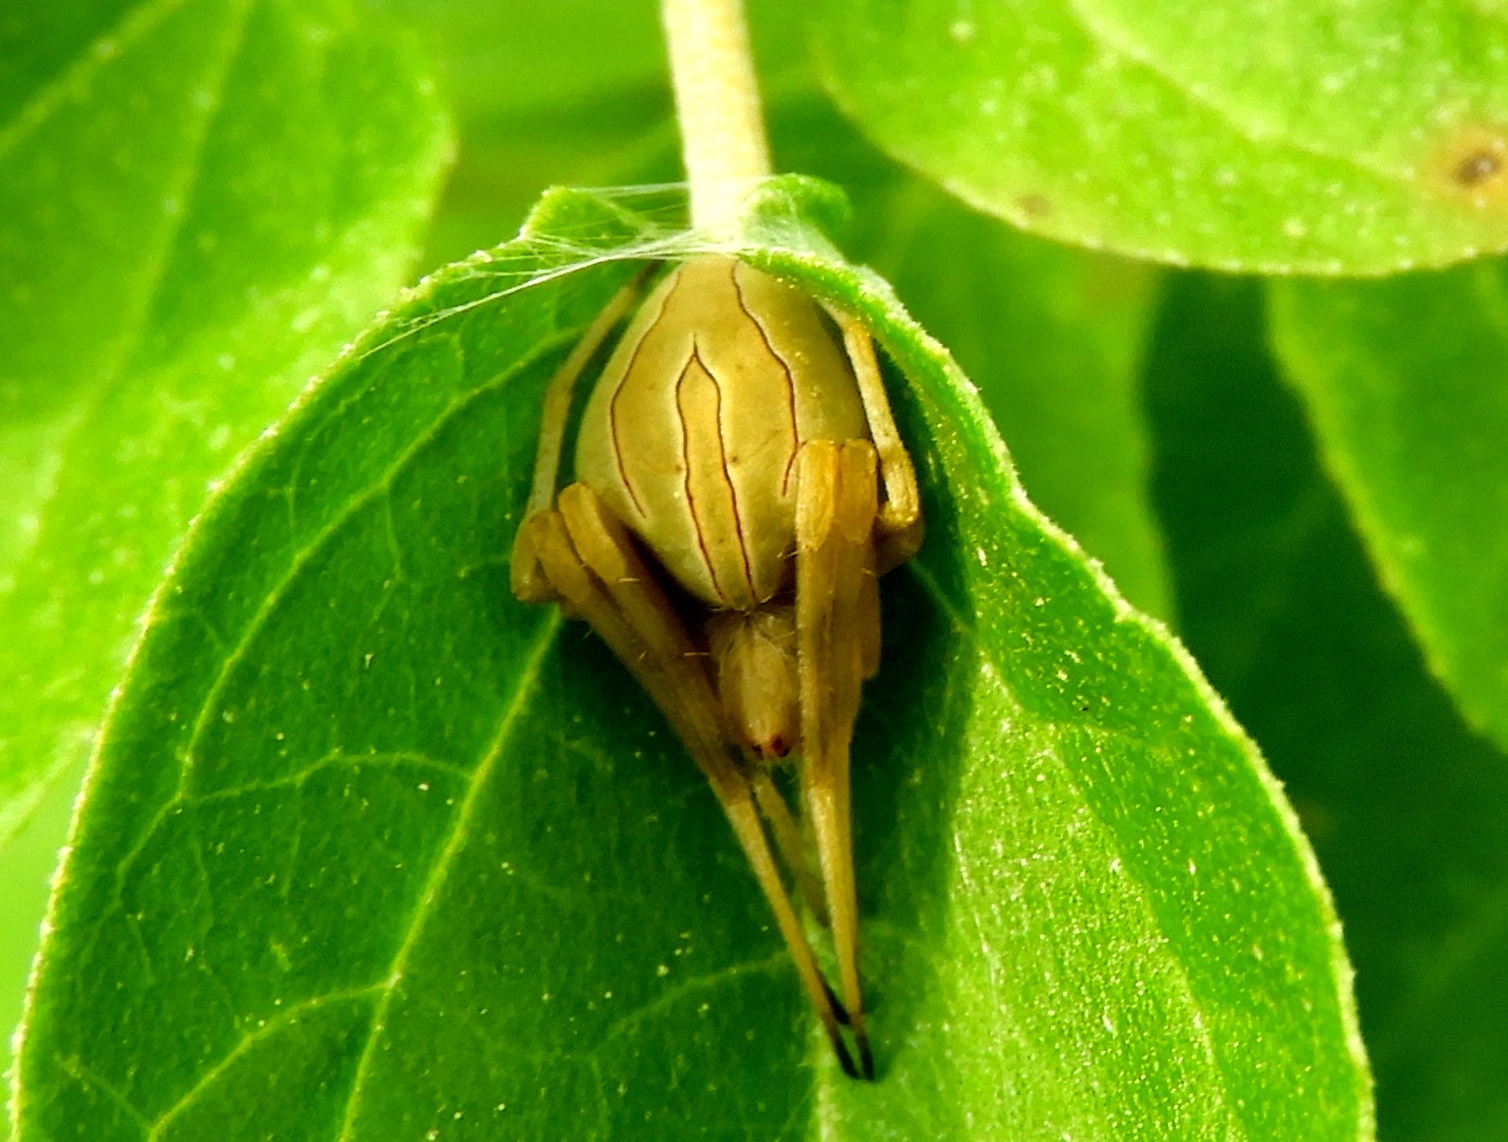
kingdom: Animalia
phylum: Arthropoda
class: Arachnida
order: Araneae
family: Araneidae
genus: Acacesia
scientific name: Acacesia
